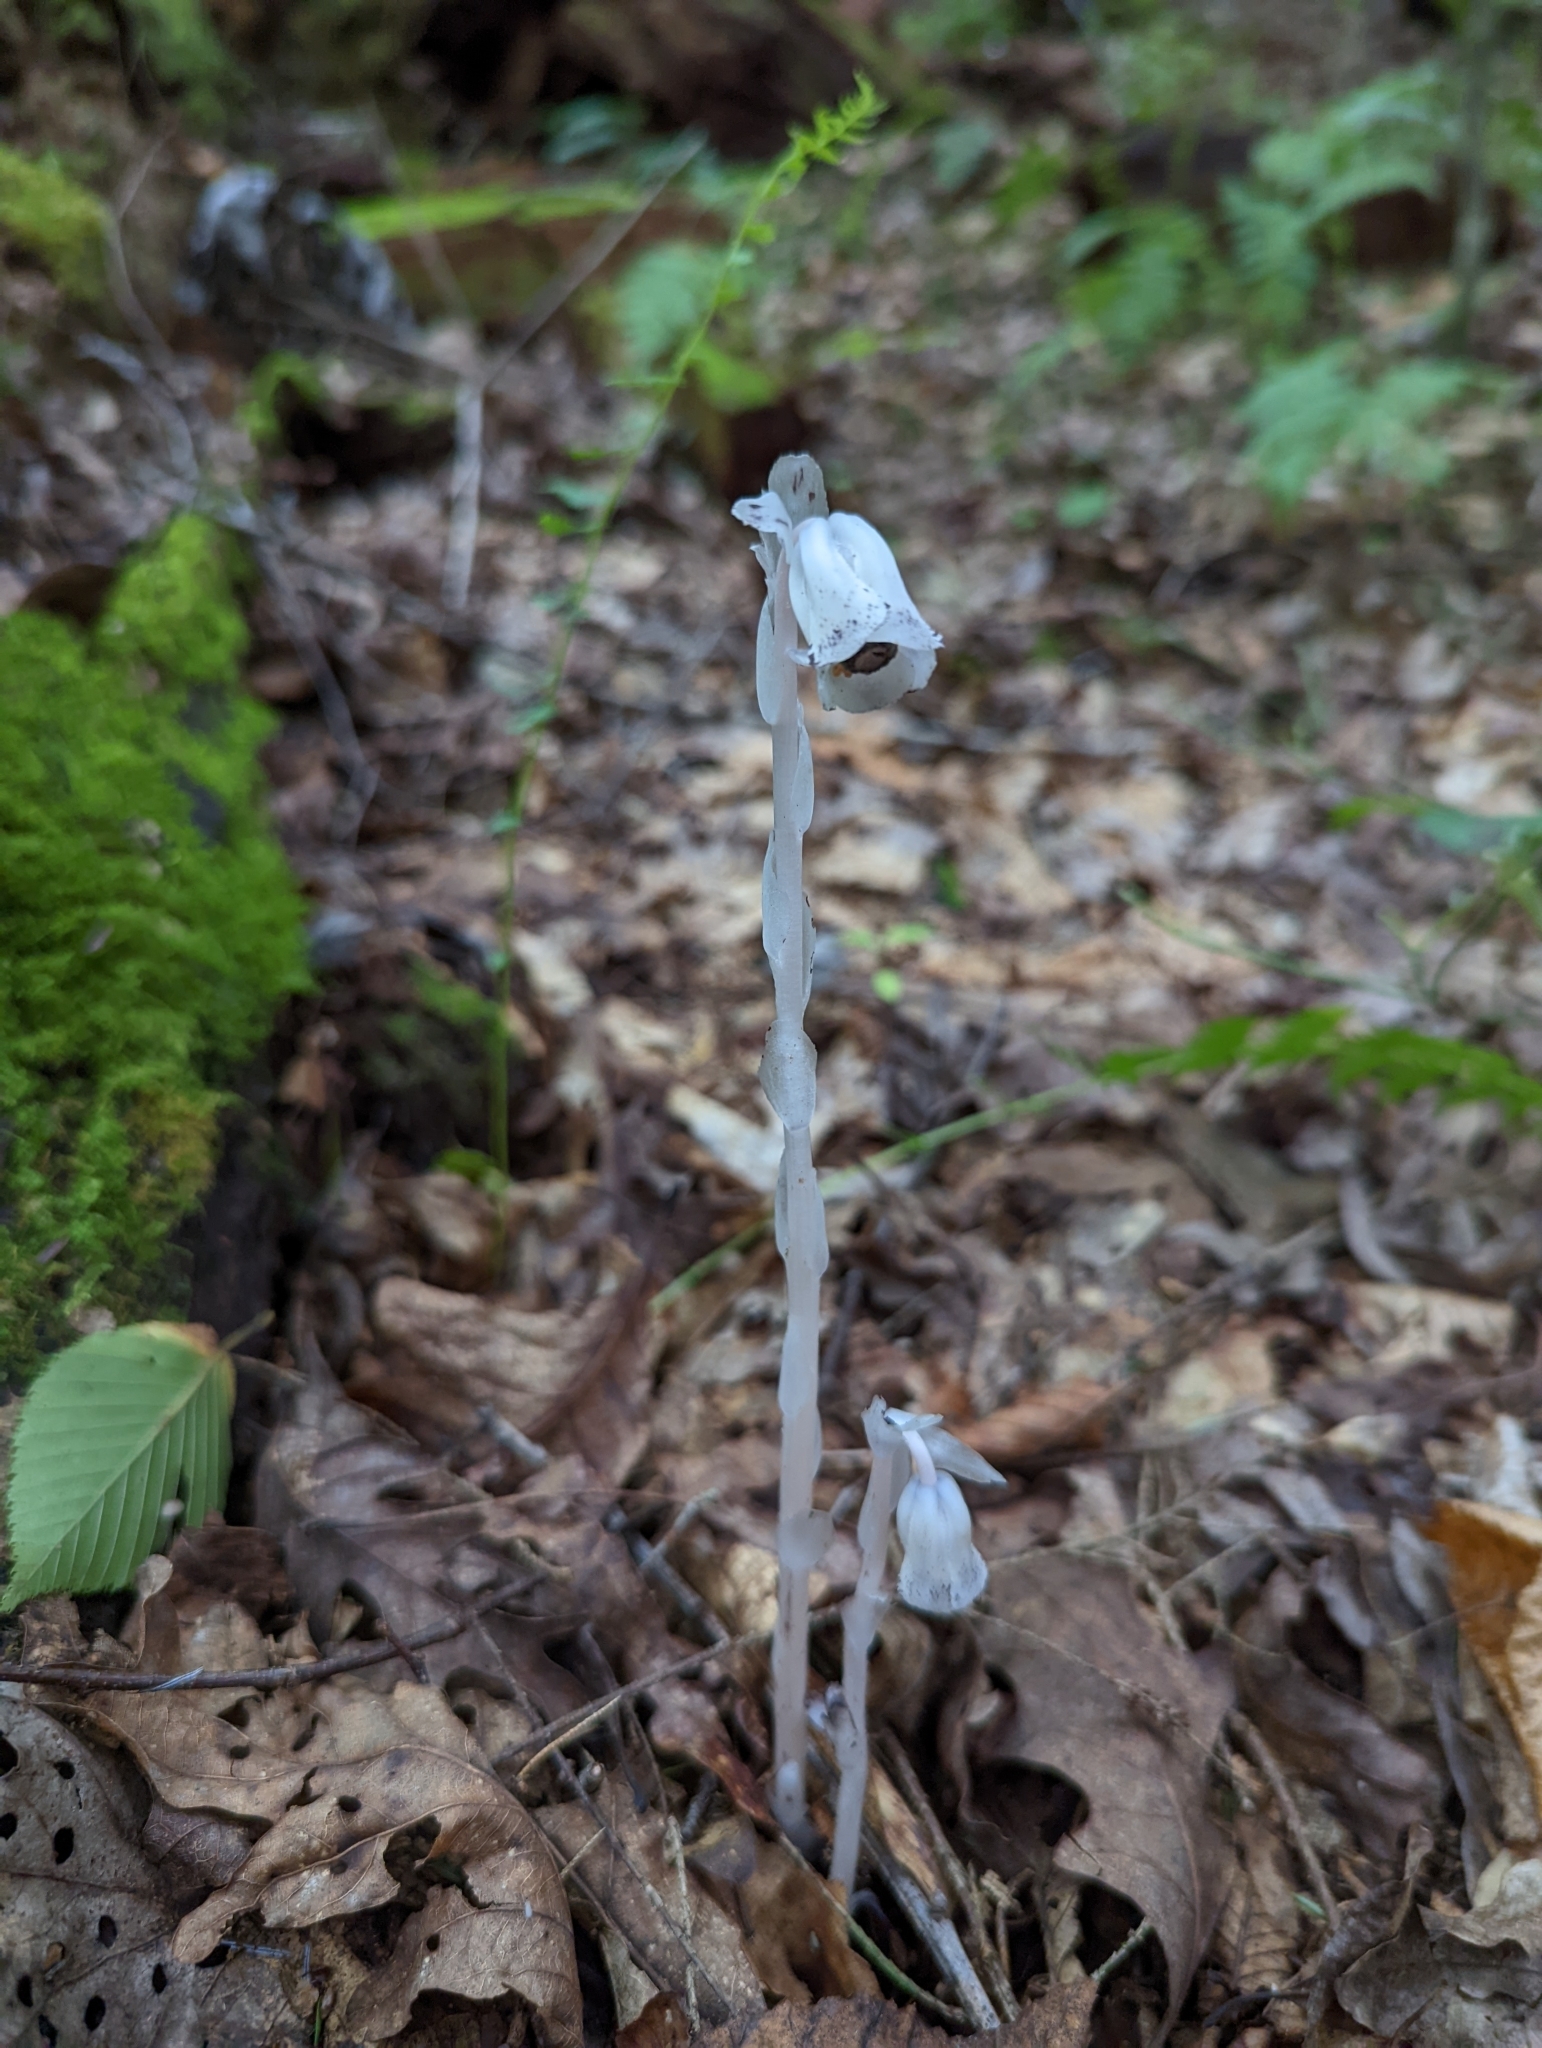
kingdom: Plantae
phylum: Tracheophyta
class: Magnoliopsida
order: Ericales
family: Ericaceae
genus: Monotropa
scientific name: Monotropa uniflora
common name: Convulsion root
